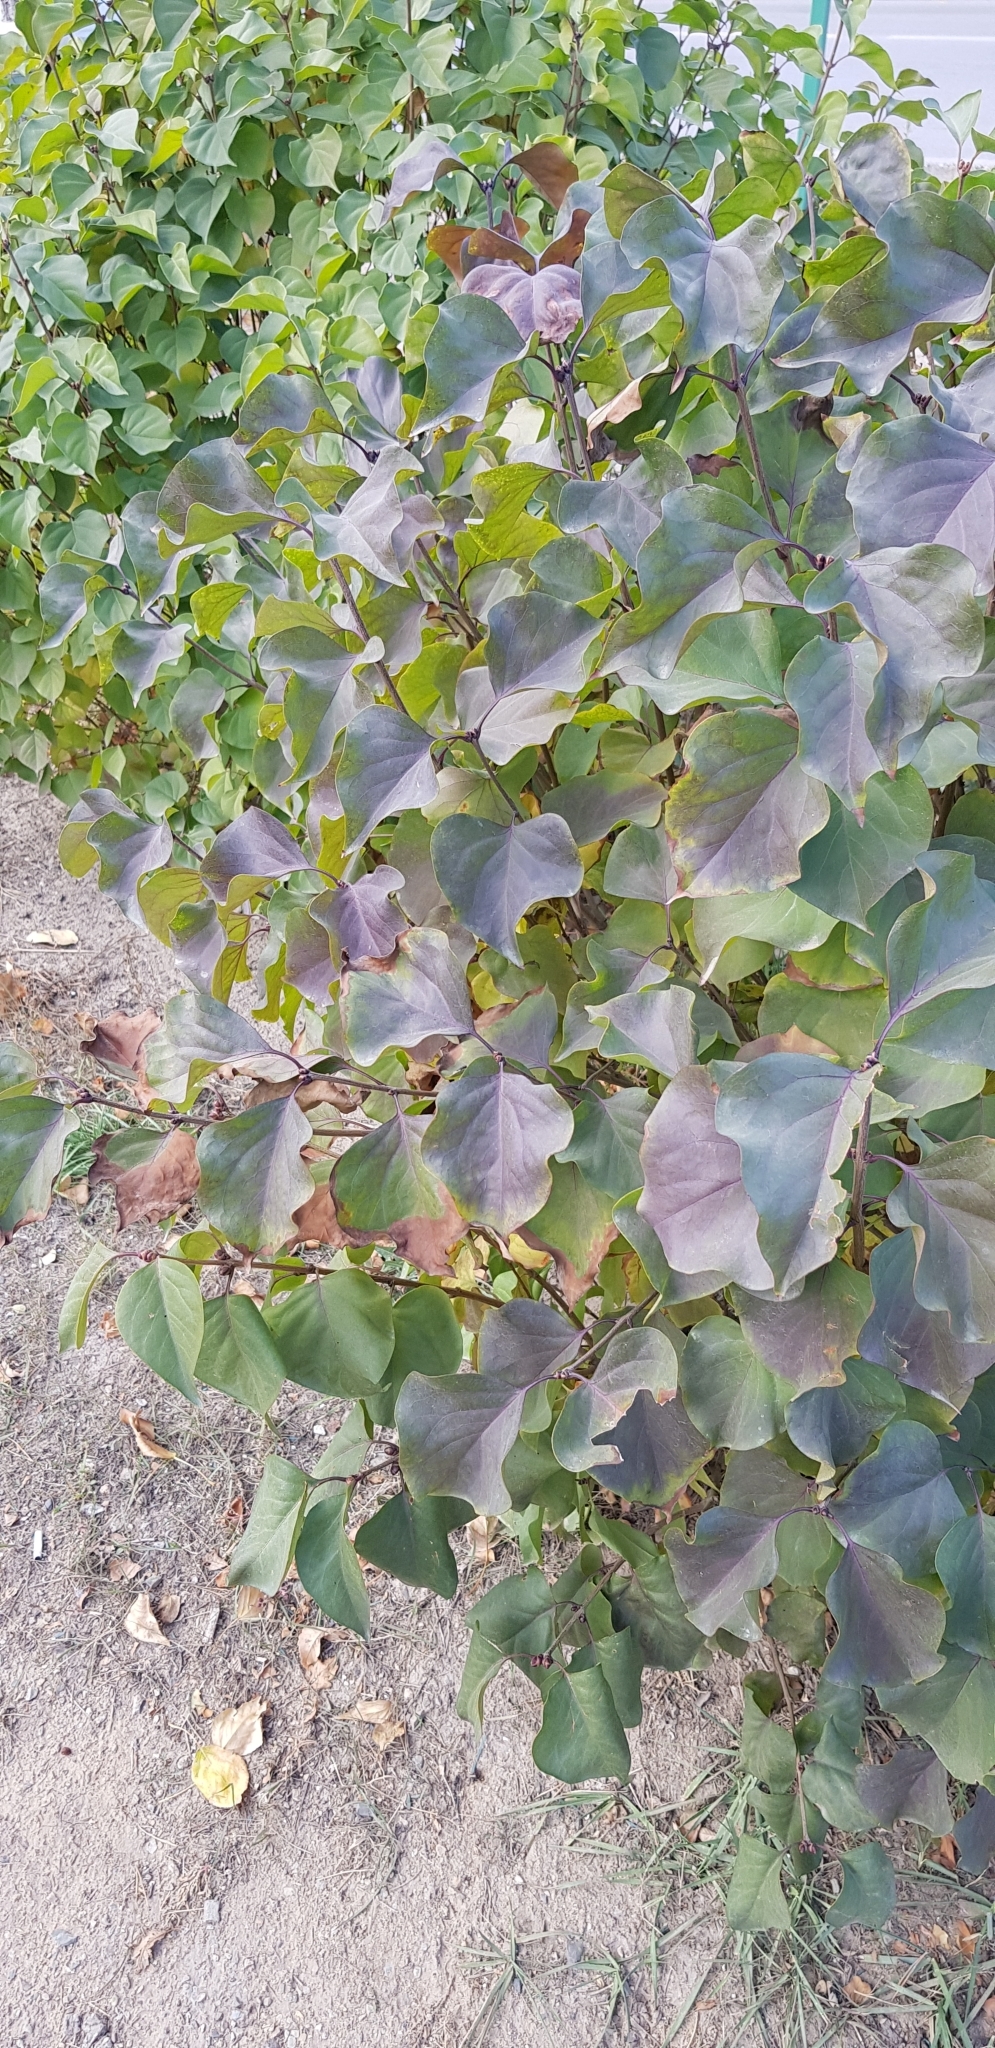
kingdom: Plantae
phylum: Tracheophyta
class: Magnoliopsida
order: Lamiales
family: Oleaceae
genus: Syringa
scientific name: Syringa vulgaris
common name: Common lilac
